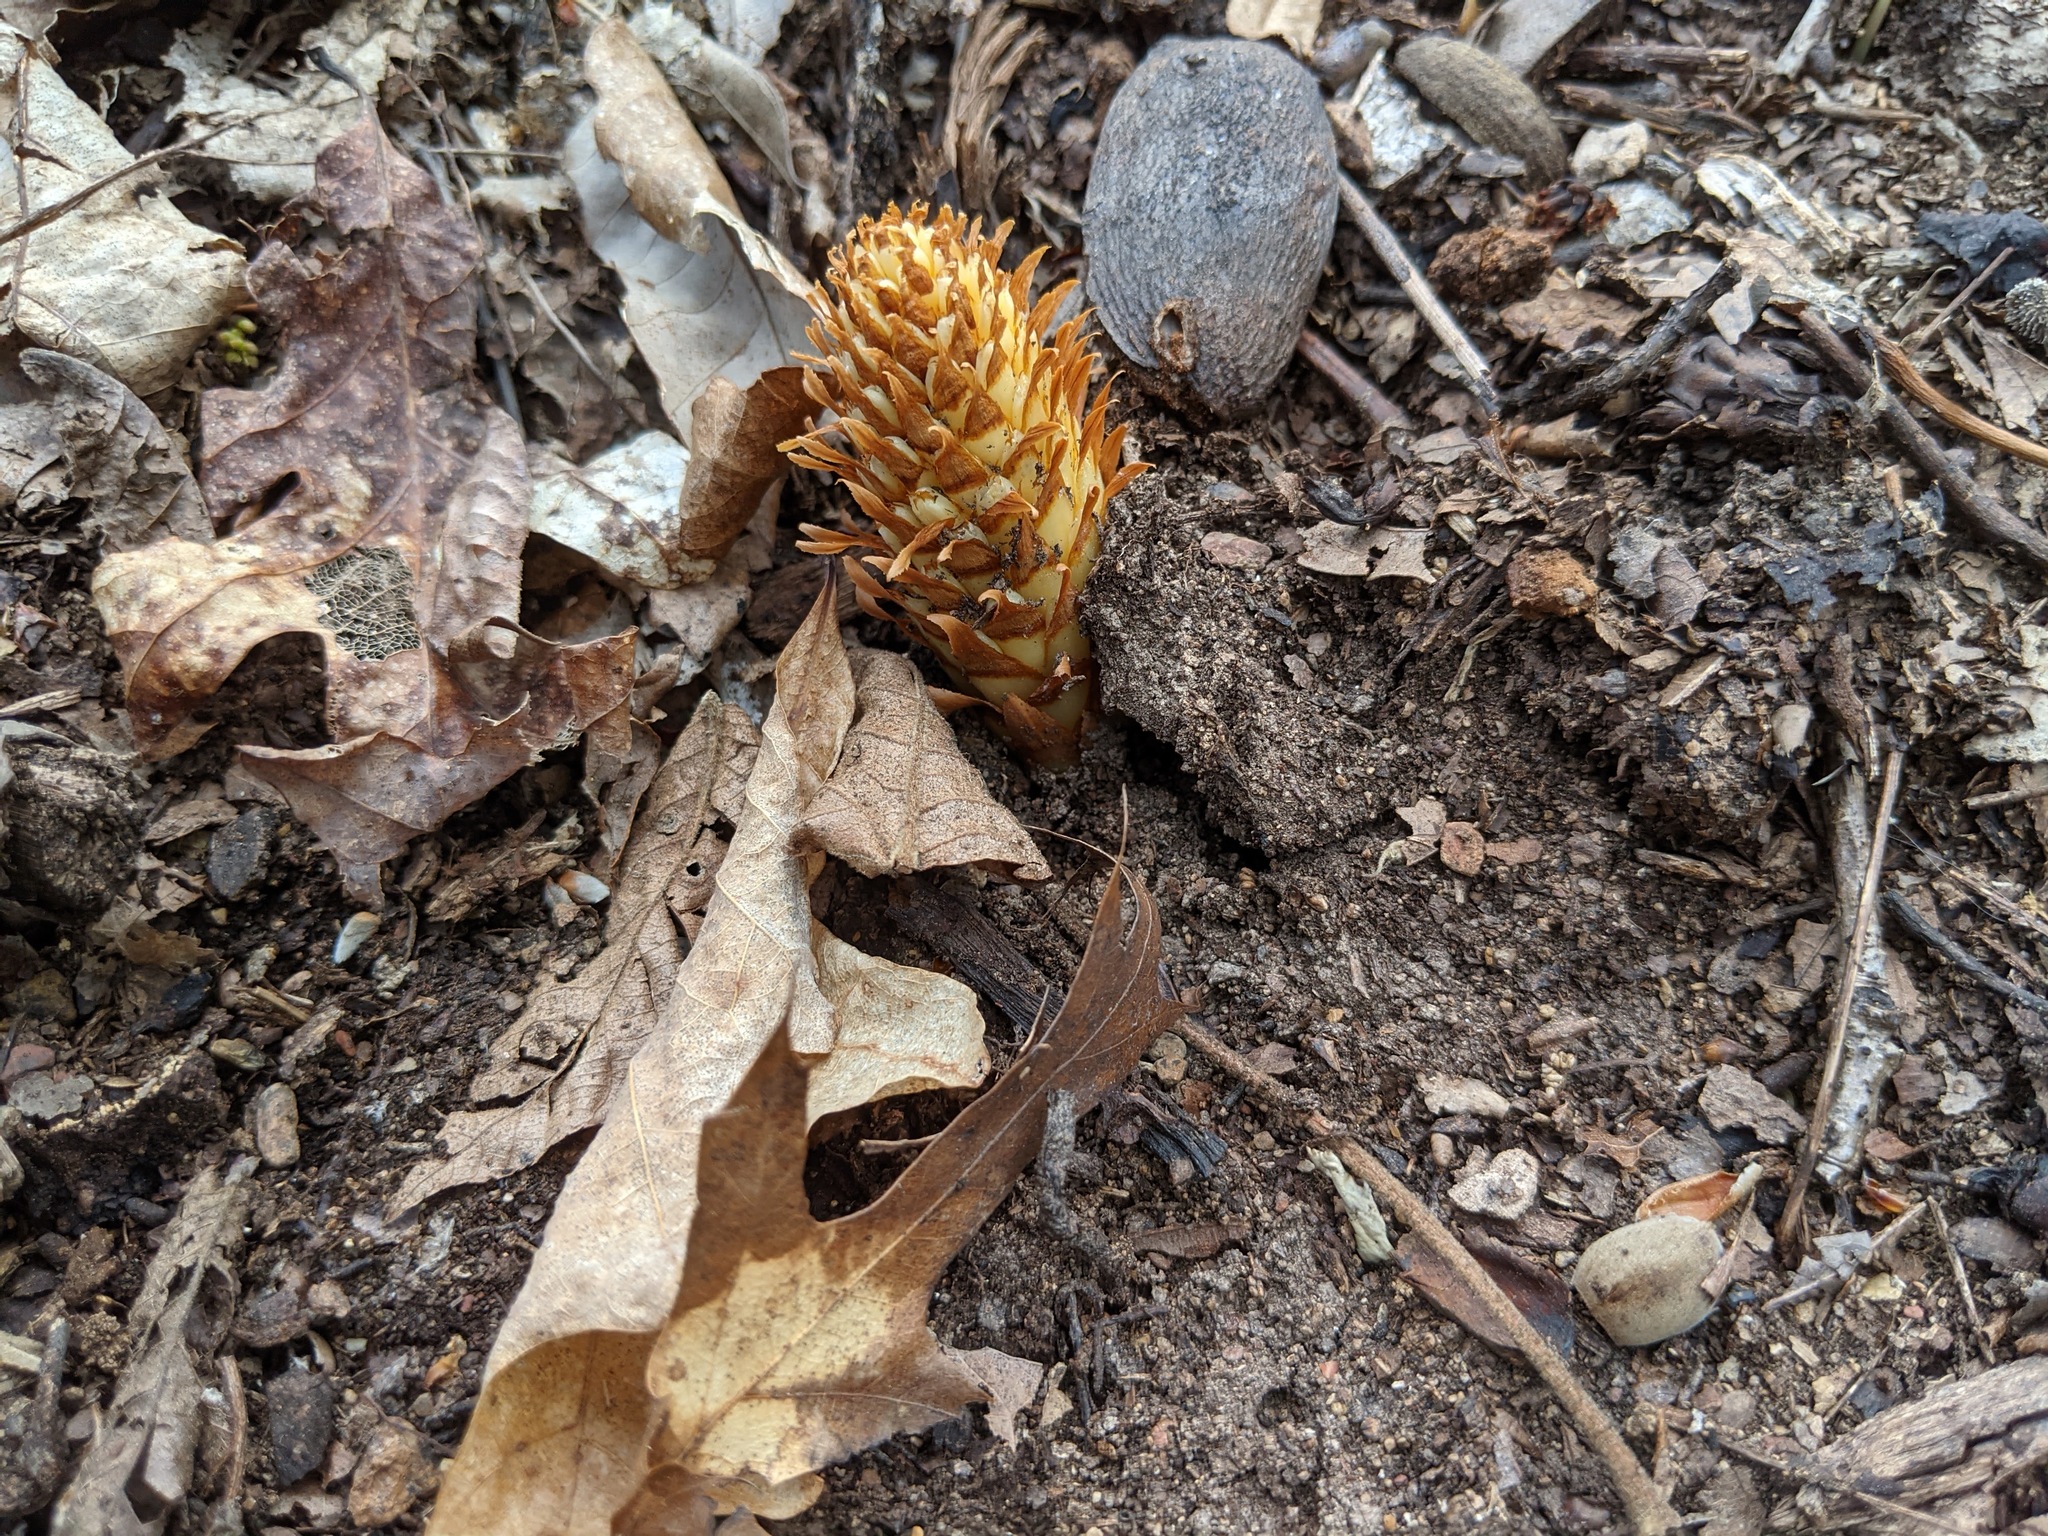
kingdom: Plantae
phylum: Tracheophyta
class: Magnoliopsida
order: Lamiales
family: Orobanchaceae
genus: Conopholis
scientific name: Conopholis americana
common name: American cancer-root
